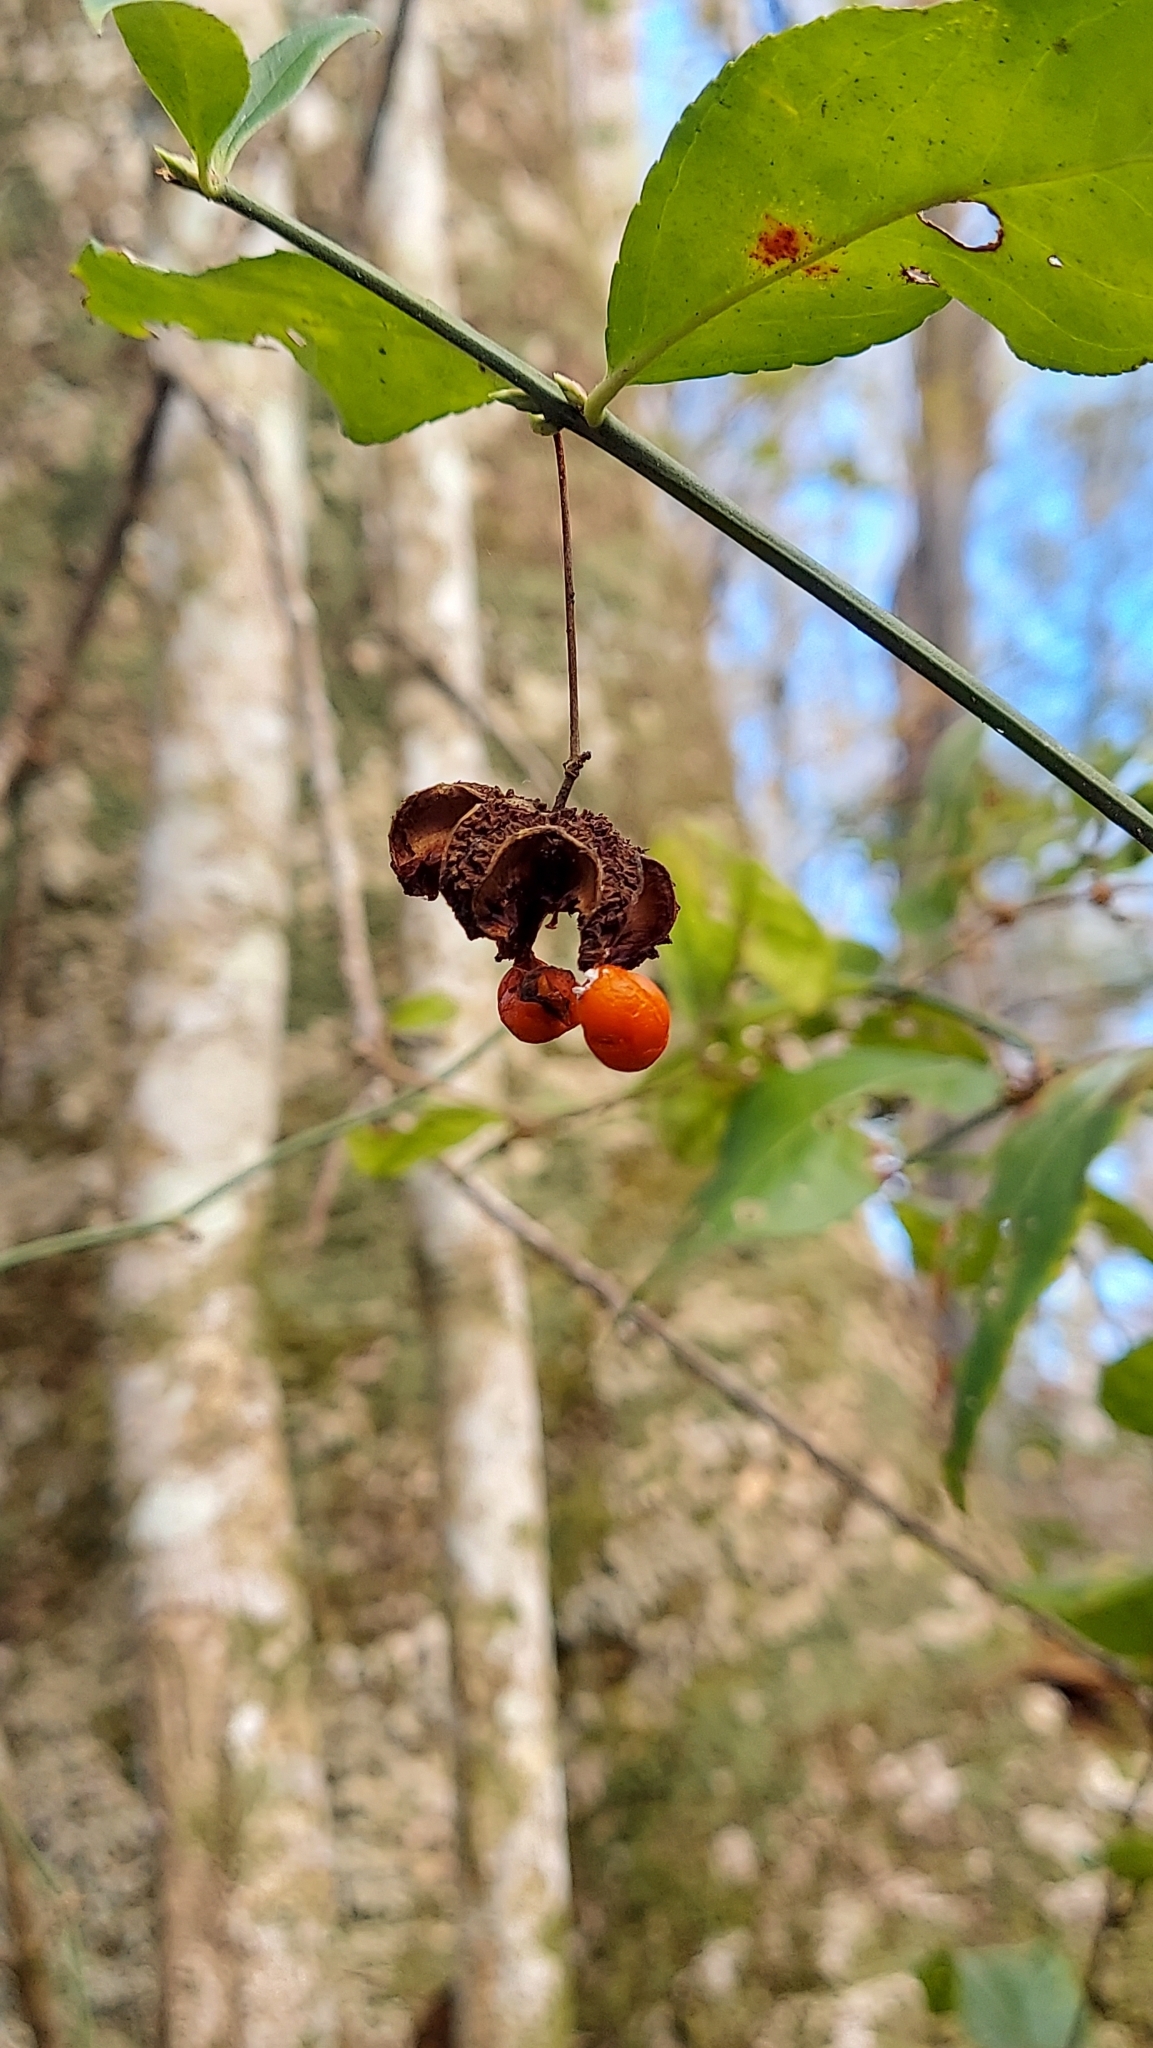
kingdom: Plantae
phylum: Tracheophyta
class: Magnoliopsida
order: Celastrales
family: Celastraceae
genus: Euonymus
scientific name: Euonymus americanus
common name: Bursting-heart
